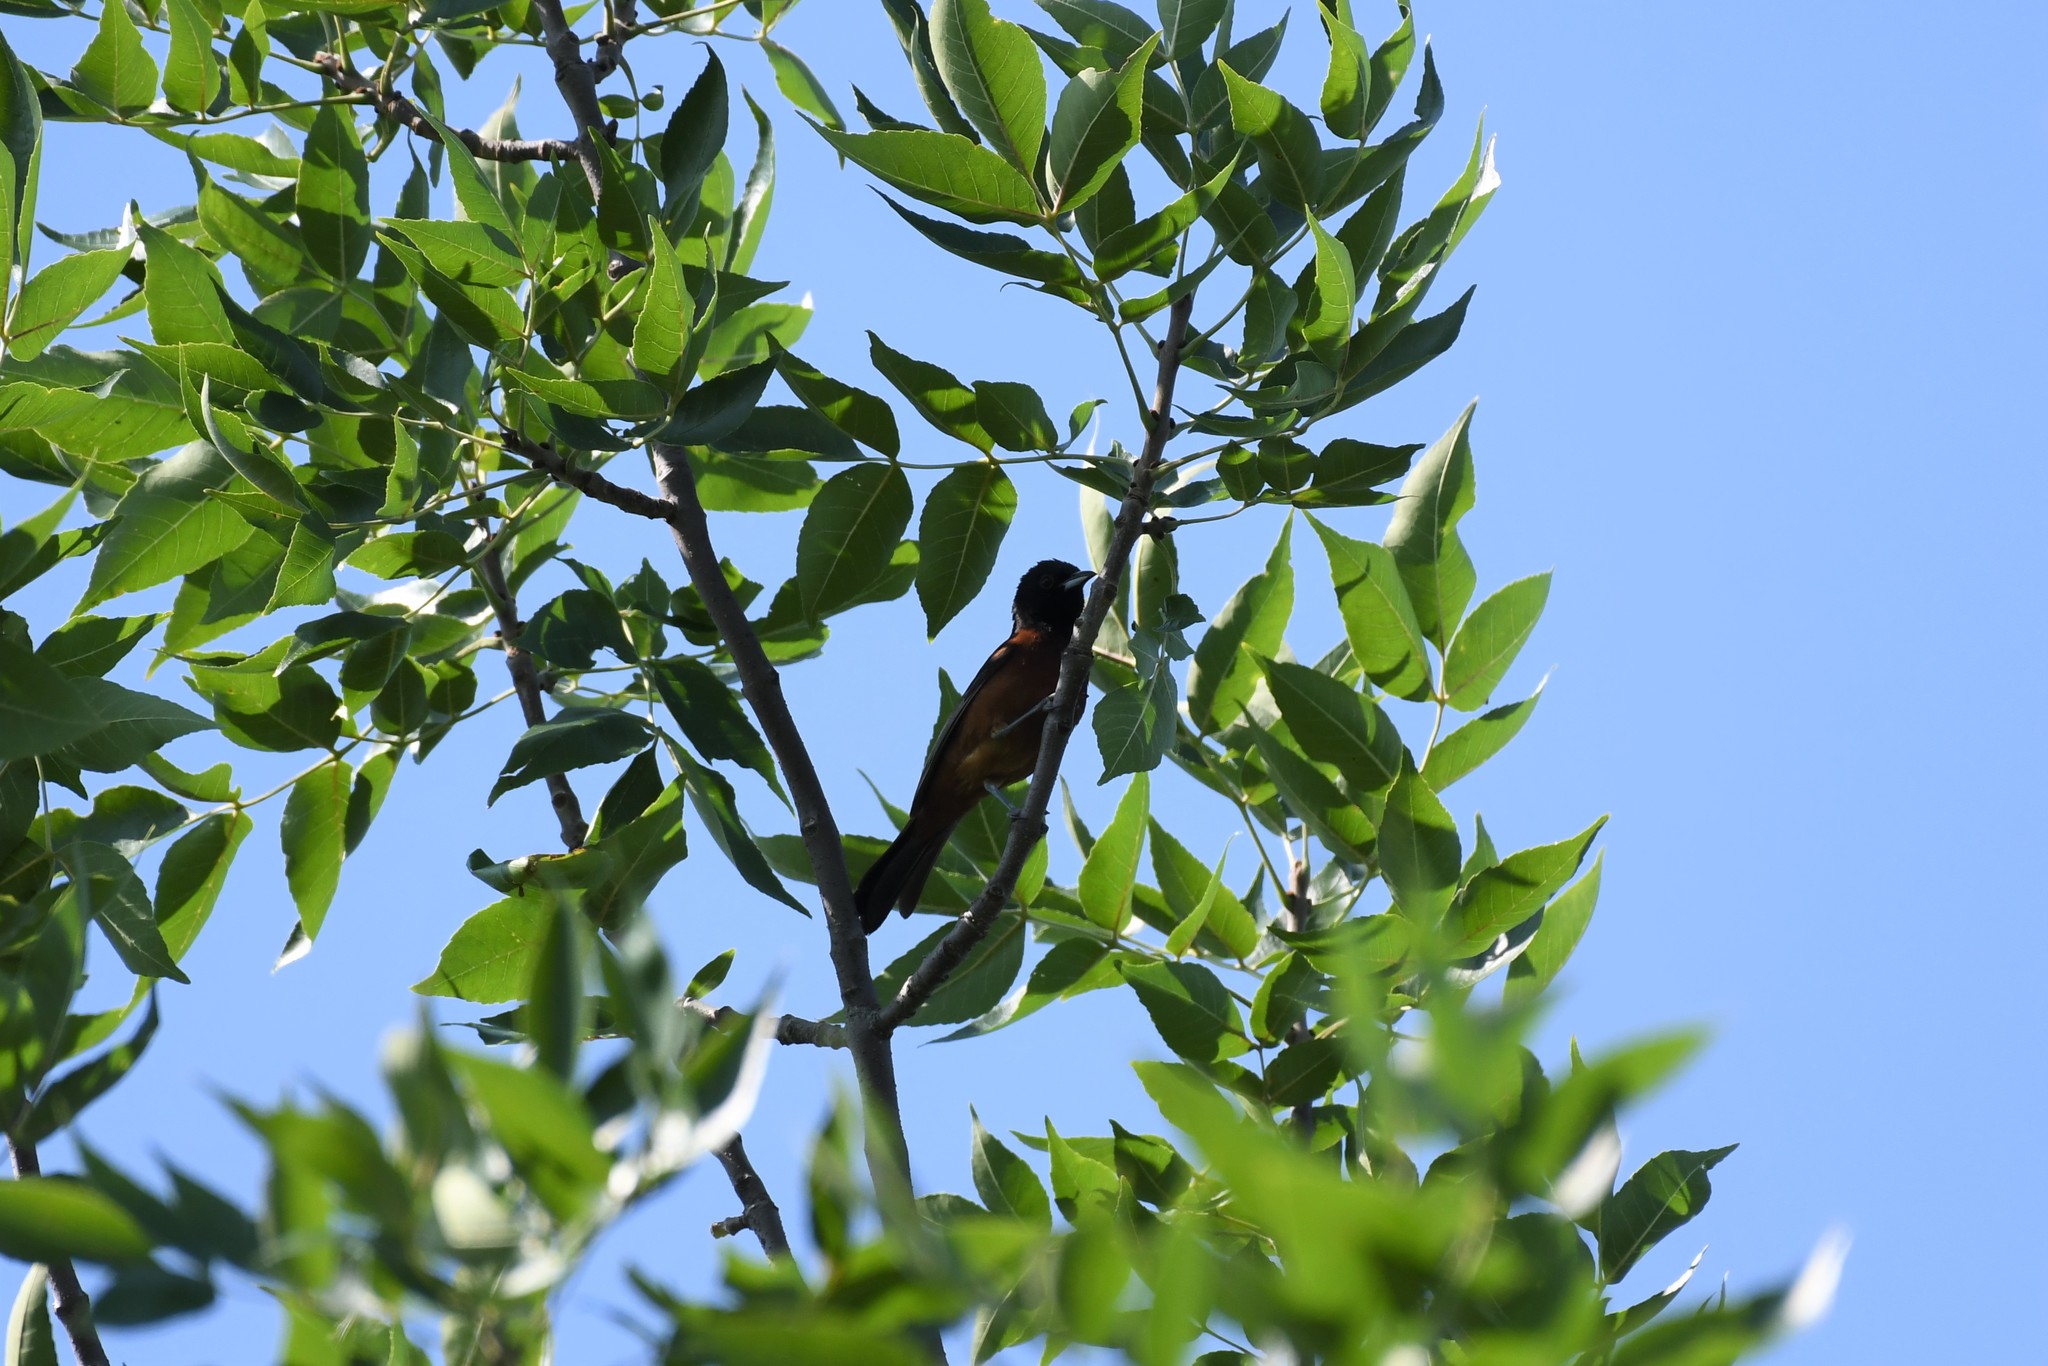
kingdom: Animalia
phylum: Chordata
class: Aves
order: Passeriformes
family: Icteridae
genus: Icterus
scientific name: Icterus spurius
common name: Orchard oriole
